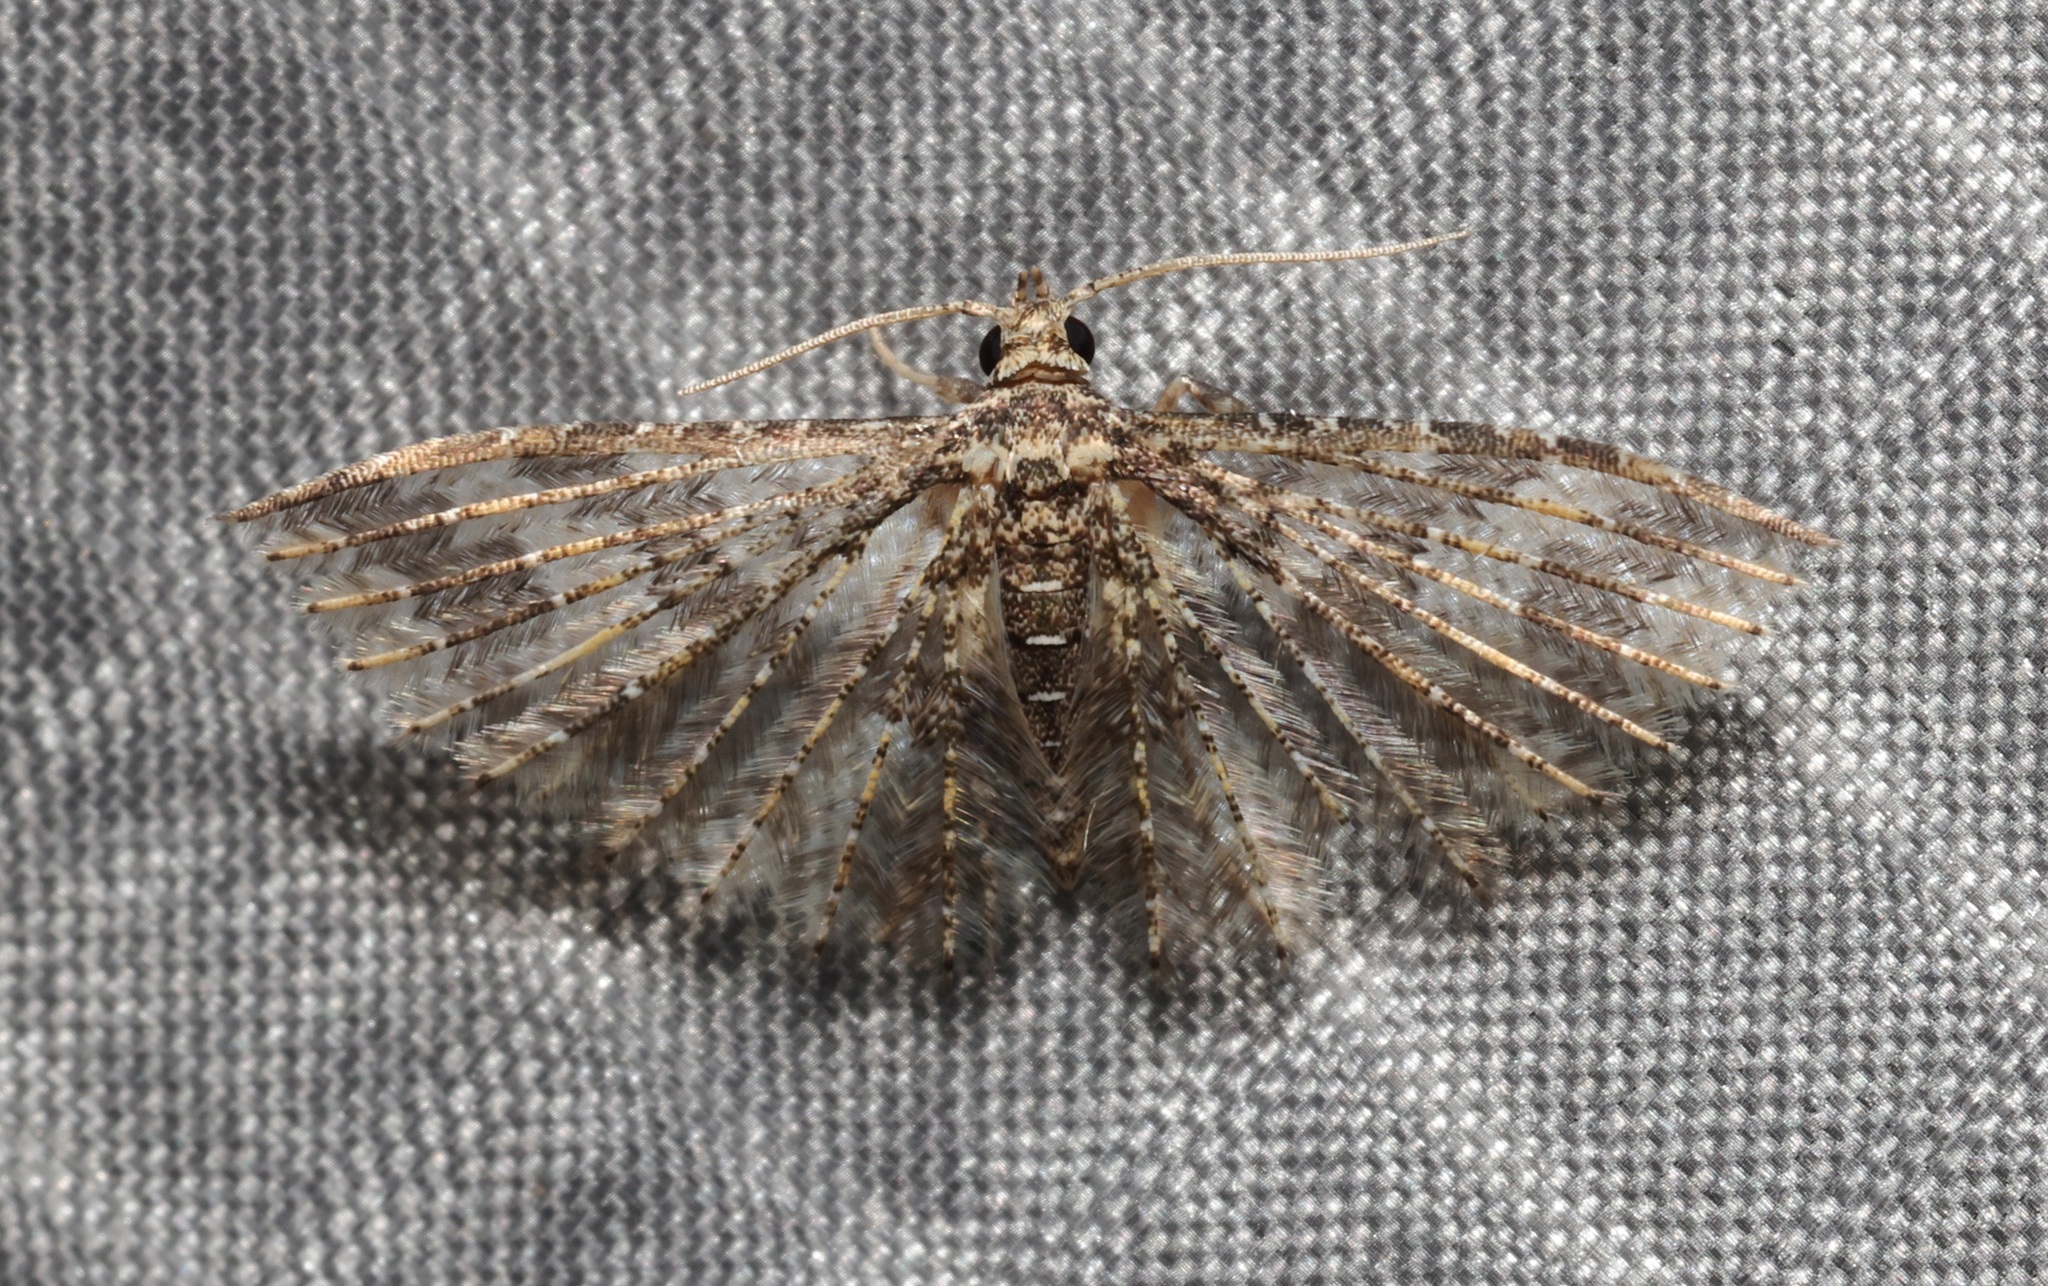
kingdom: Animalia
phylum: Arthropoda
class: Insecta
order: Lepidoptera
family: Alucitidae
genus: Pterotopteryx
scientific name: Pterotopteryx spilodesma
